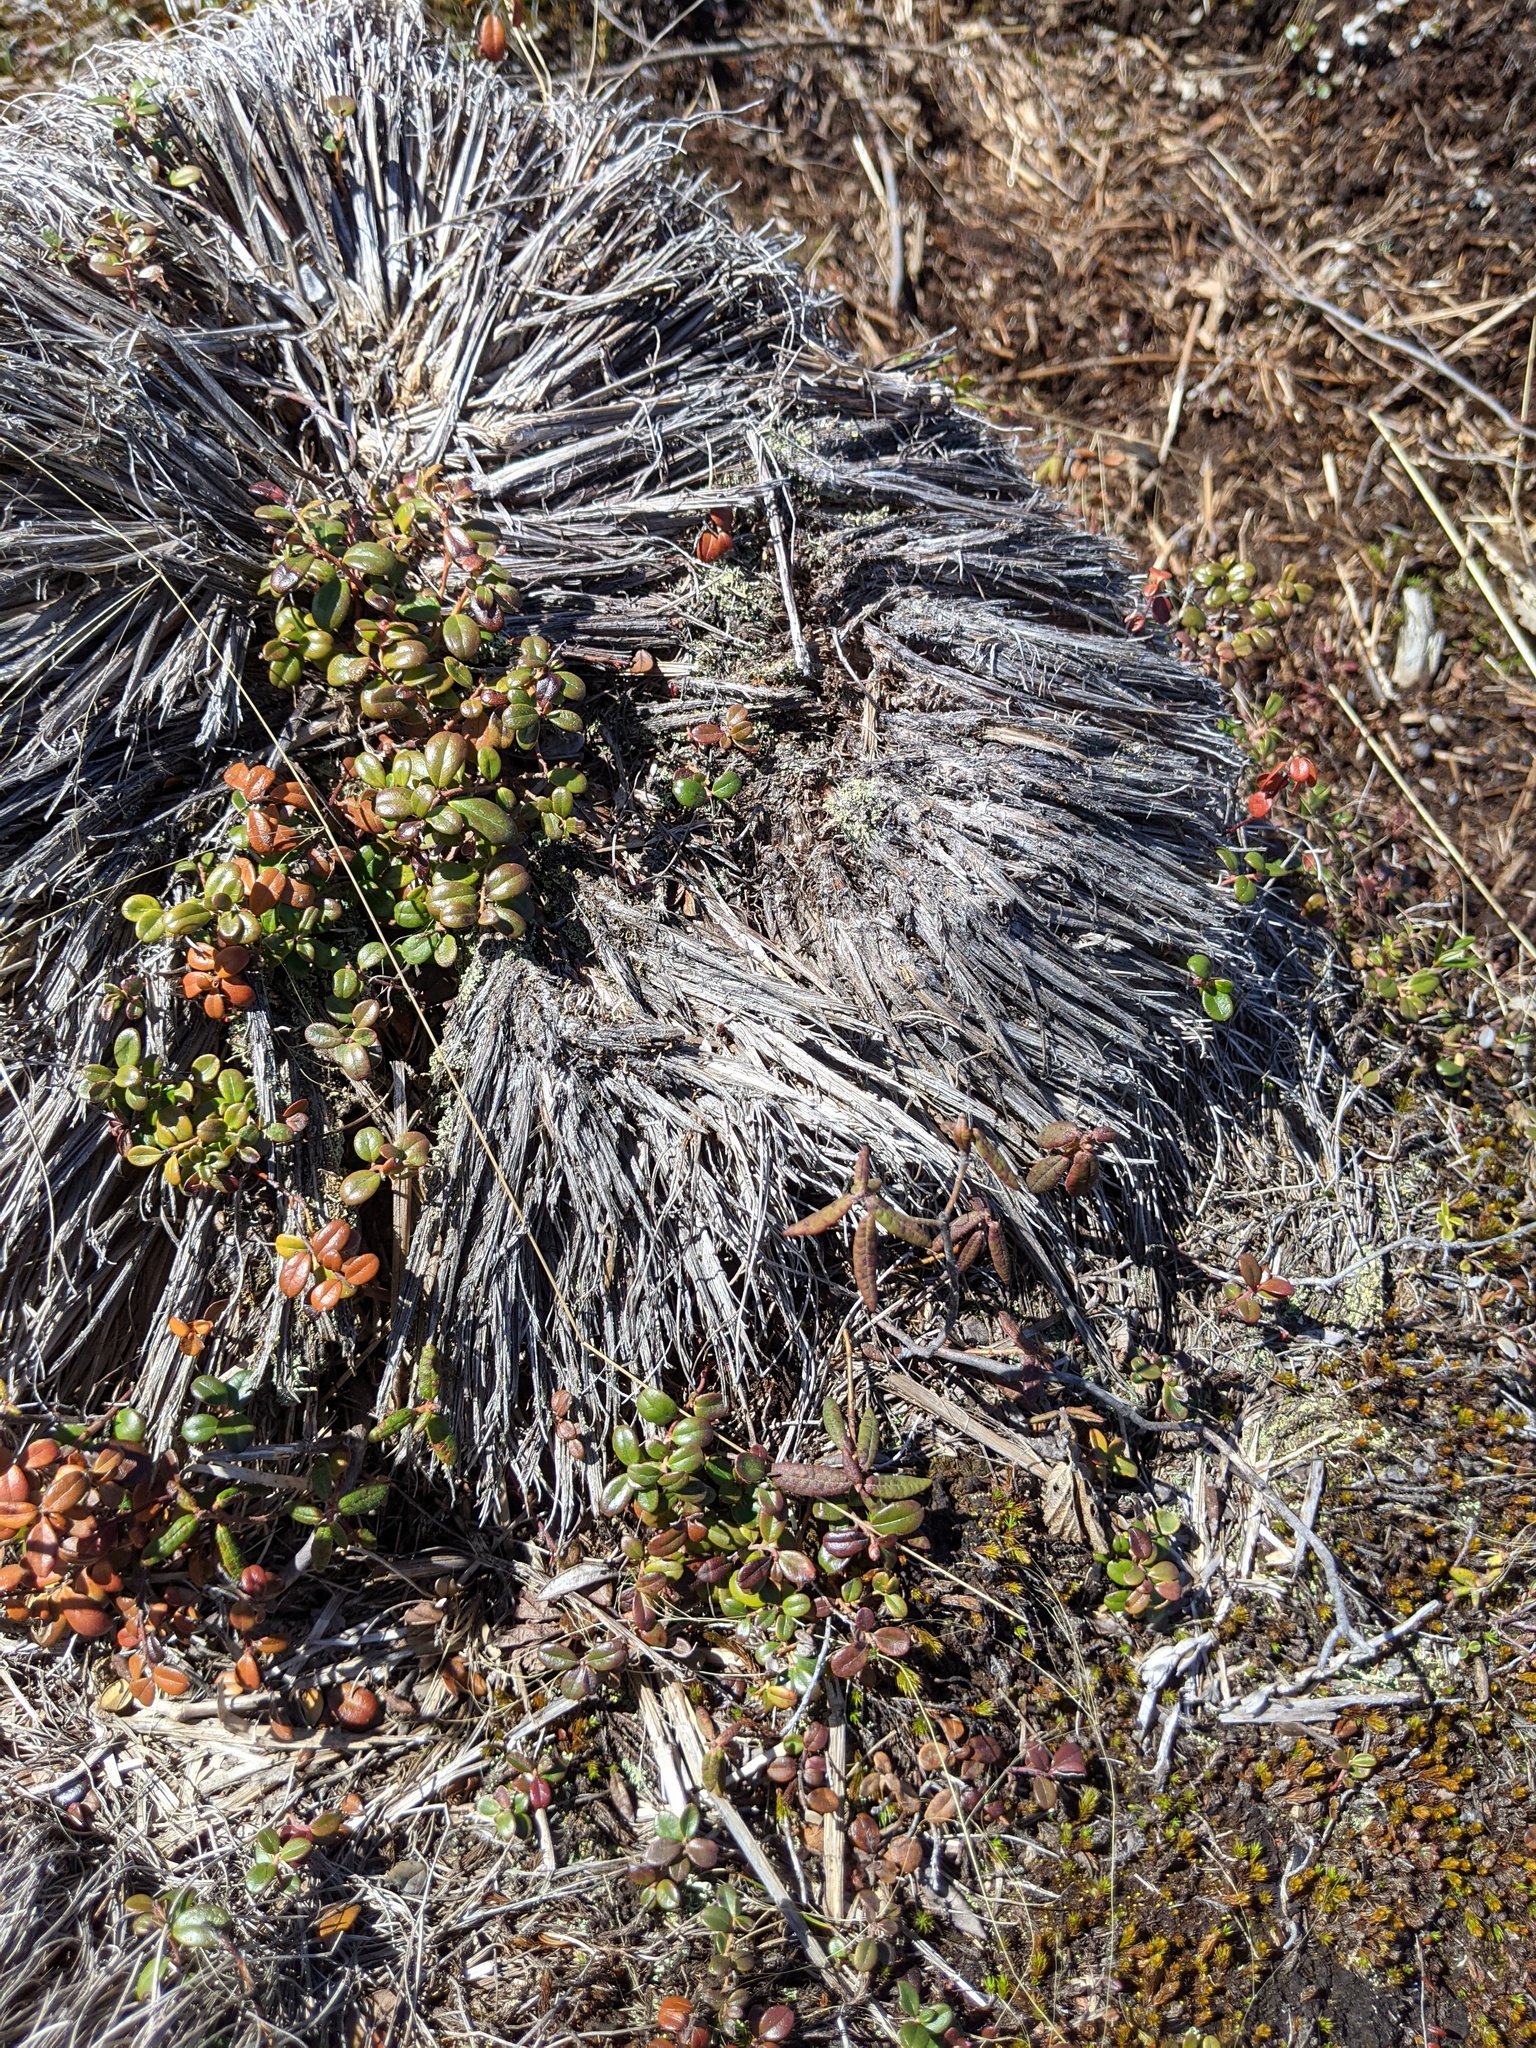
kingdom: Plantae
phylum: Tracheophyta
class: Magnoliopsida
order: Ericales
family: Ericaceae
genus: Vaccinium
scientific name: Vaccinium vitis-idaea
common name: Cowberry
